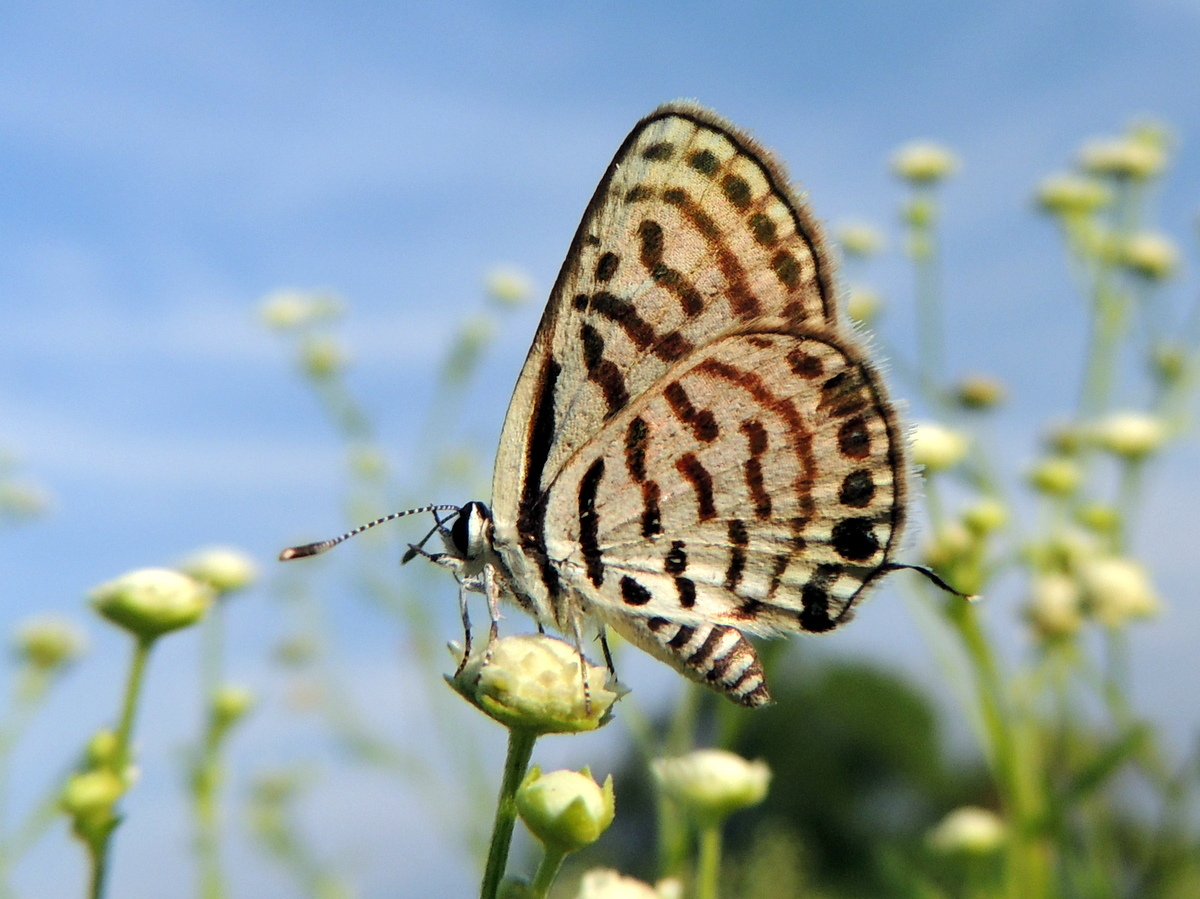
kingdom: Animalia
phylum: Arthropoda
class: Insecta
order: Lepidoptera
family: Lycaenidae
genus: Tarucus
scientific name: Tarucus
